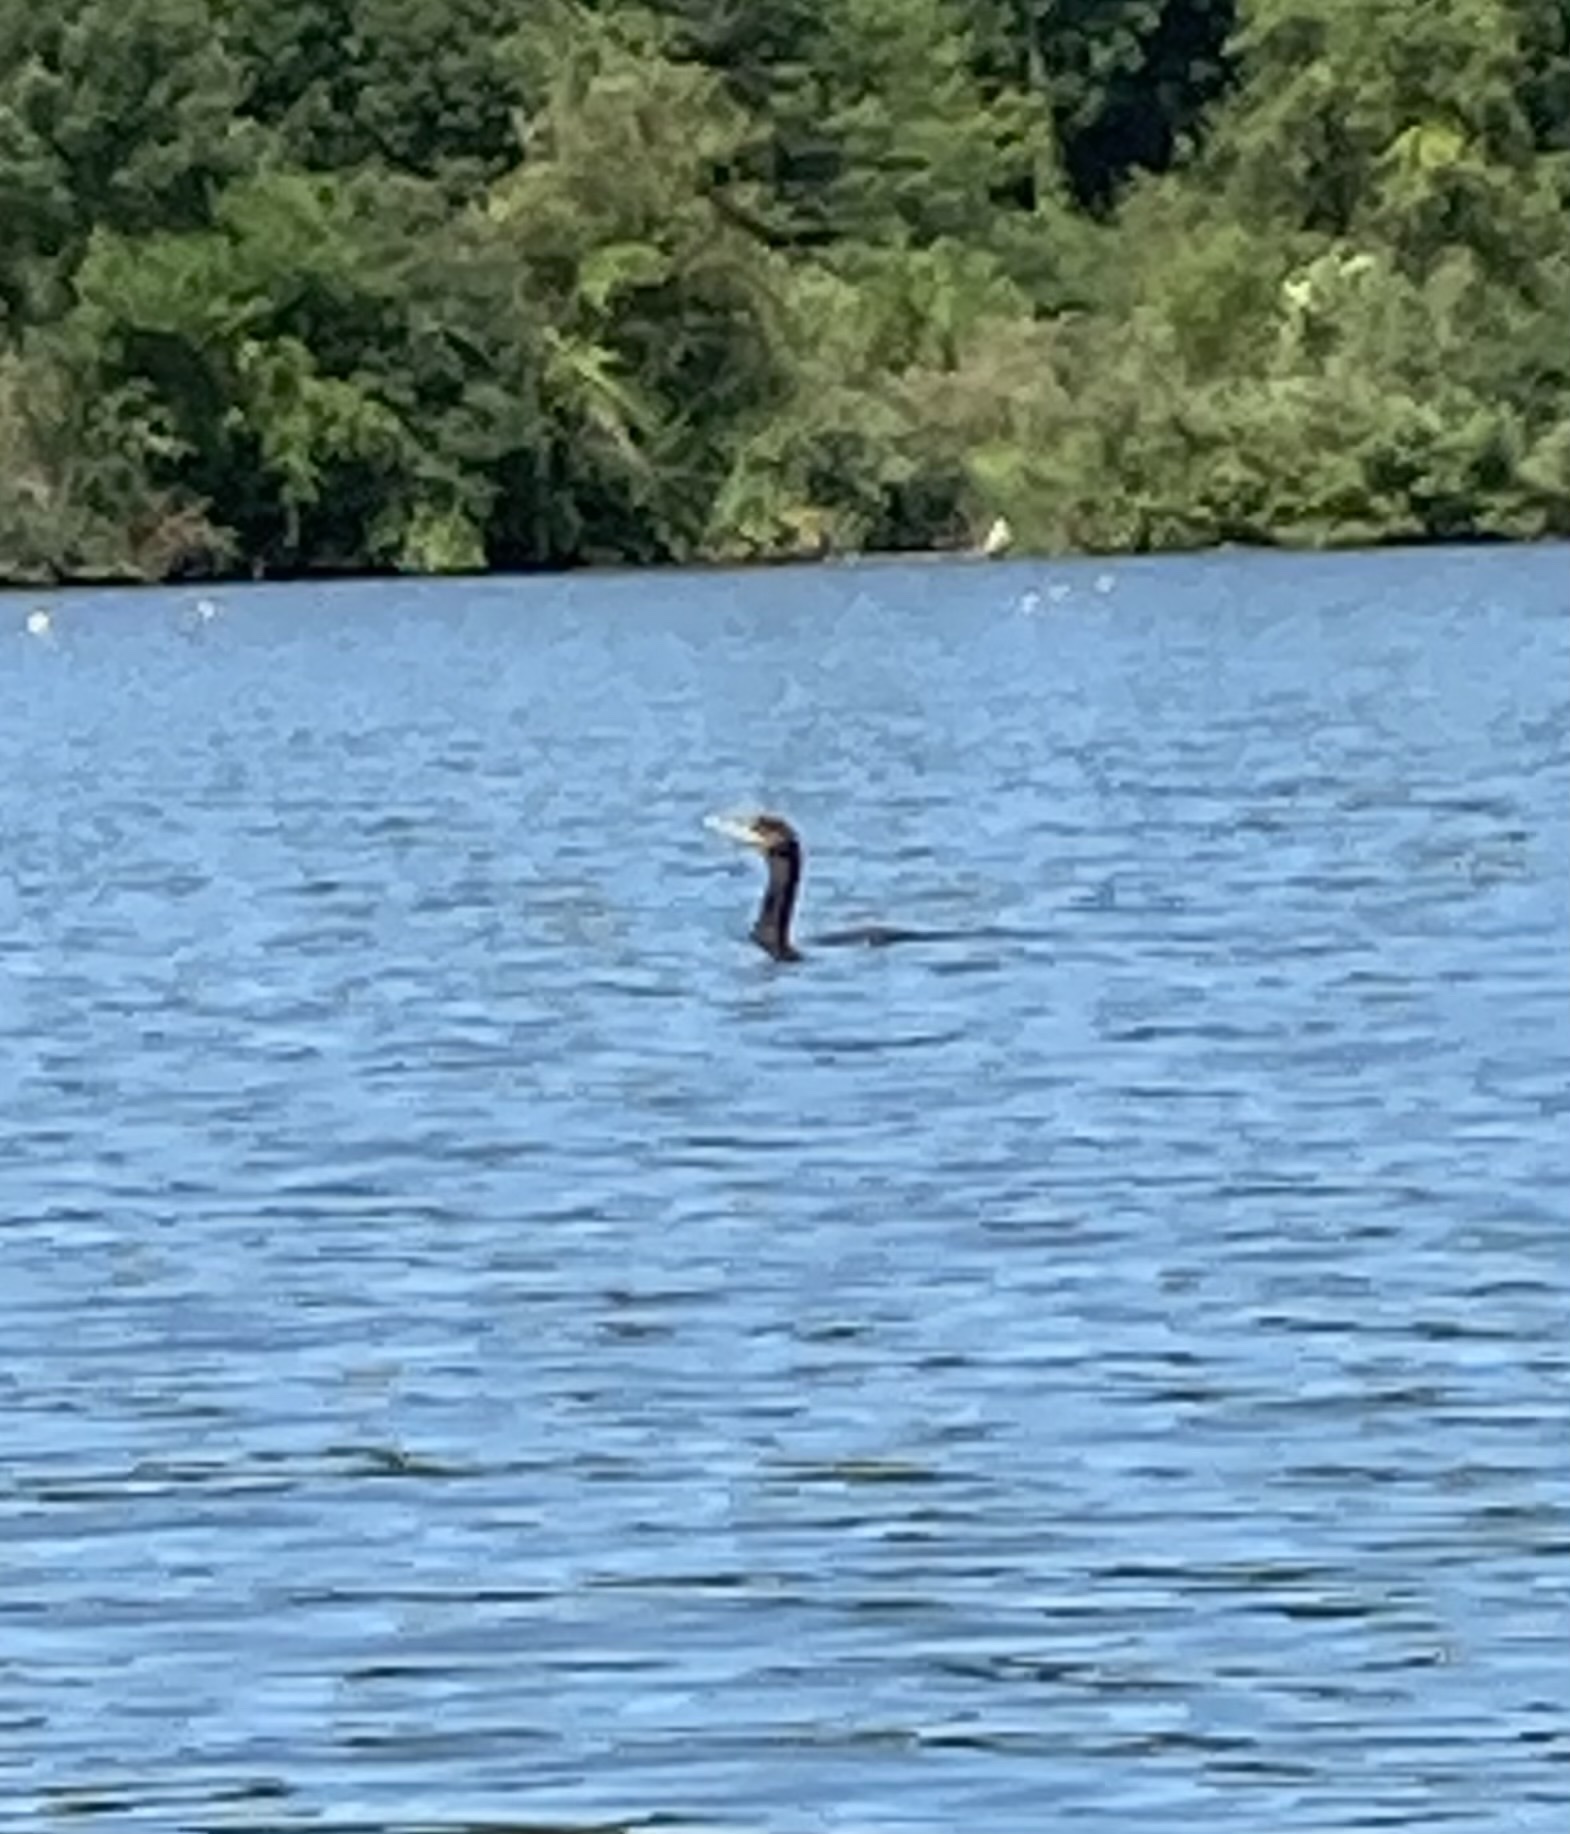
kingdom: Animalia
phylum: Chordata
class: Aves
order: Suliformes
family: Phalacrocoracidae
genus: Phalacrocorax
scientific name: Phalacrocorax auritus
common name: Double-crested cormorant
